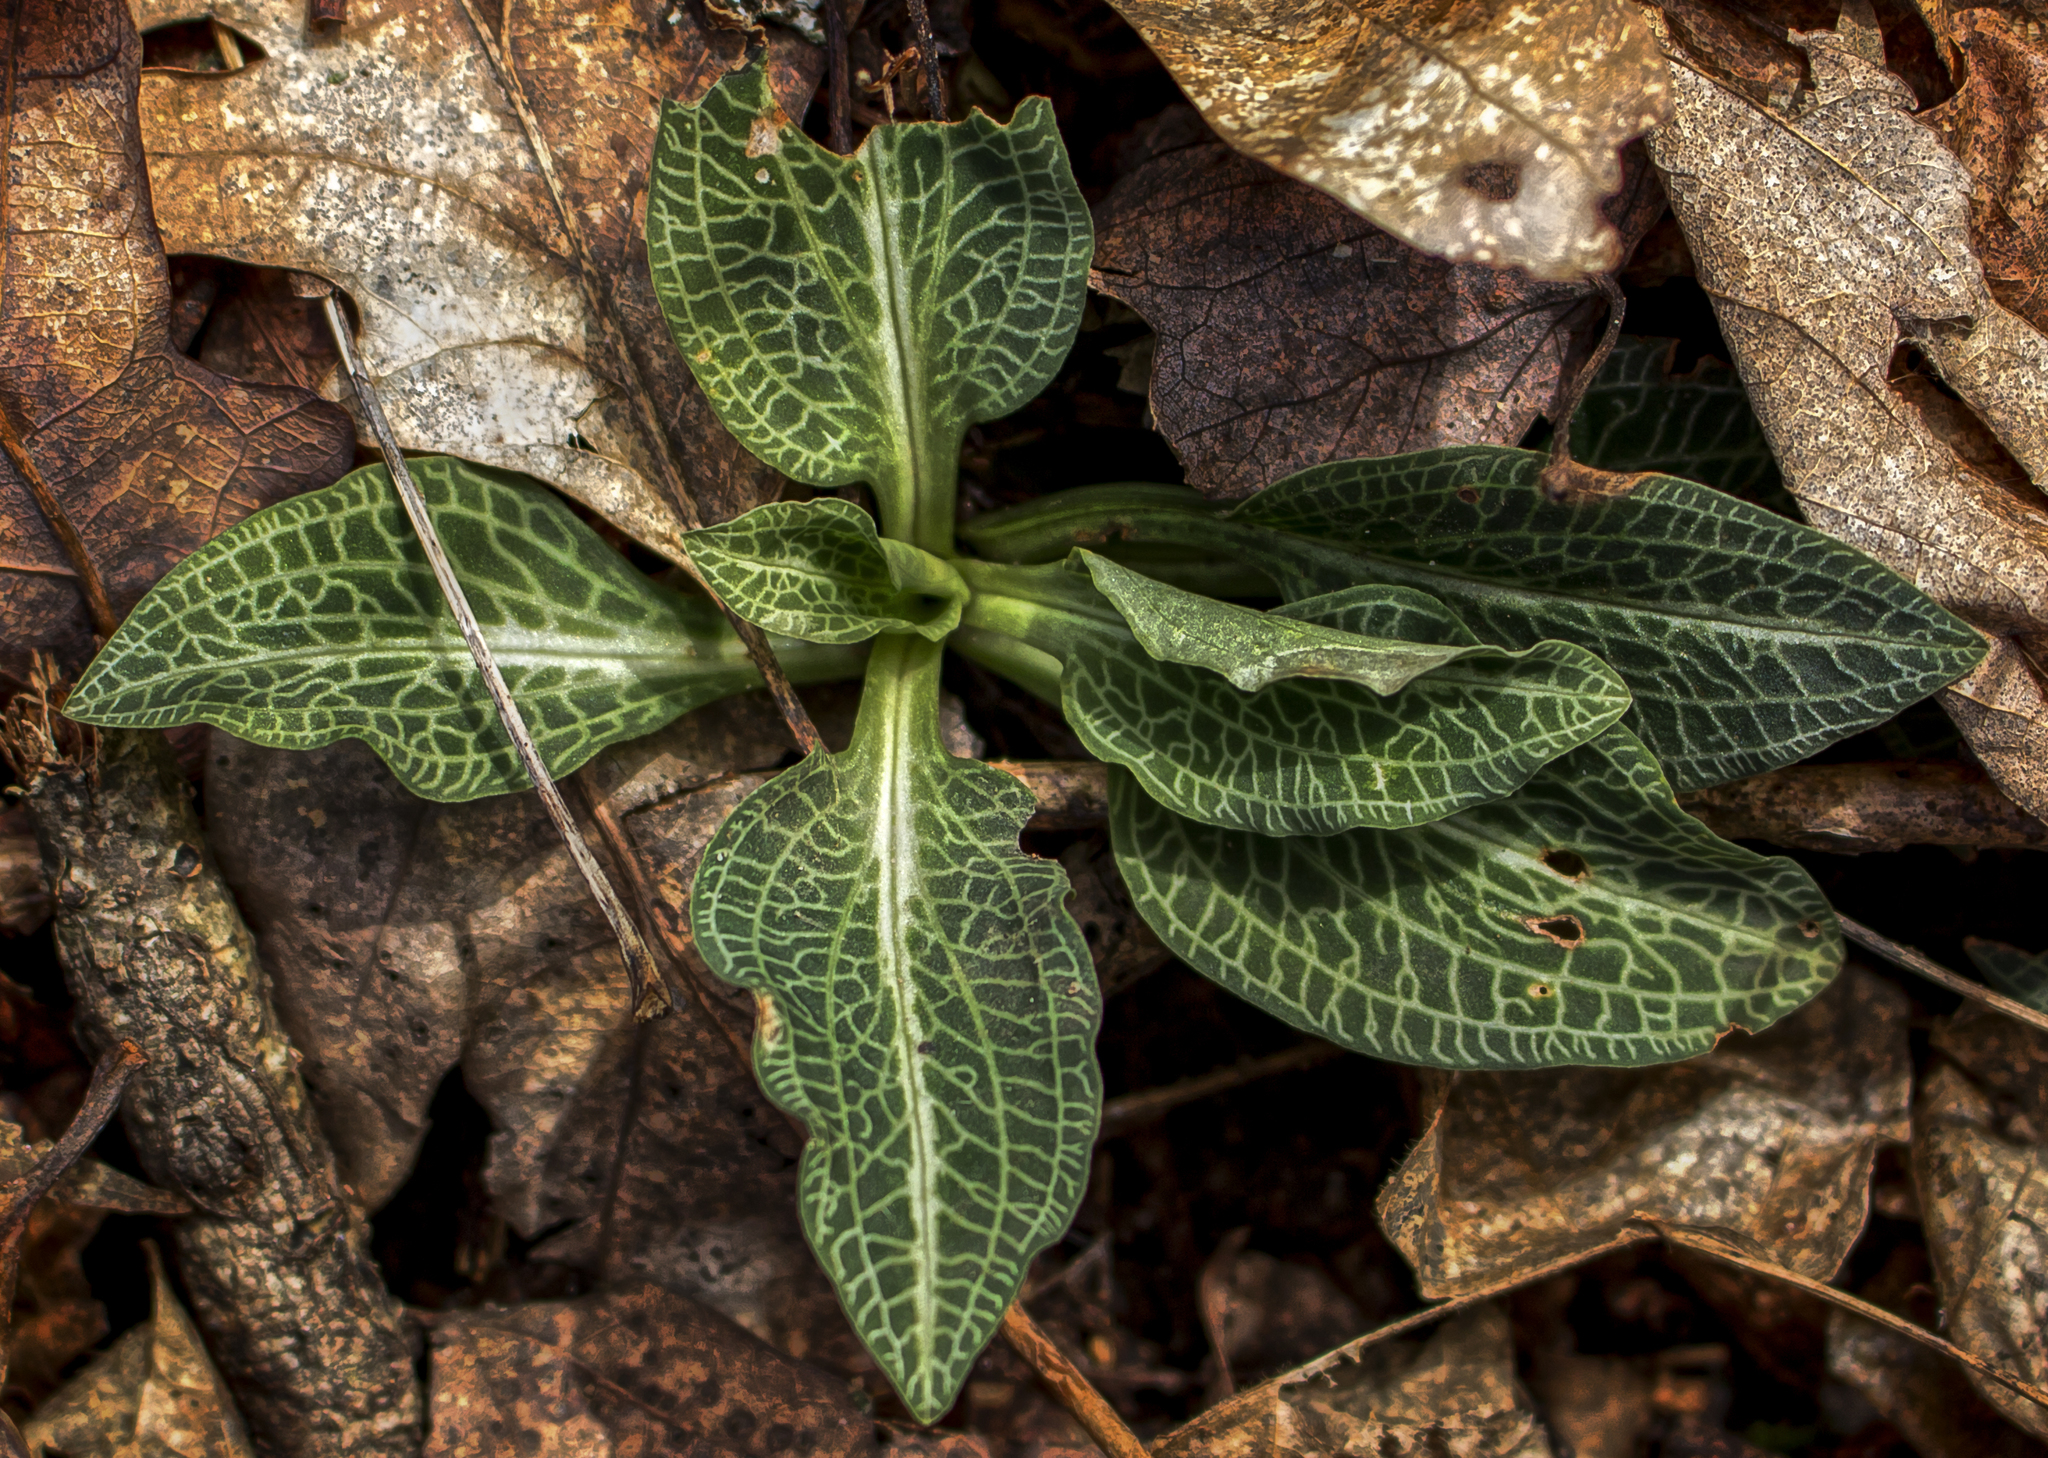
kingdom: Plantae
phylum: Tracheophyta
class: Liliopsida
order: Asparagales
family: Orchidaceae
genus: Goodyera
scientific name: Goodyera pubescens
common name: Downy rattlesnake-plantain
